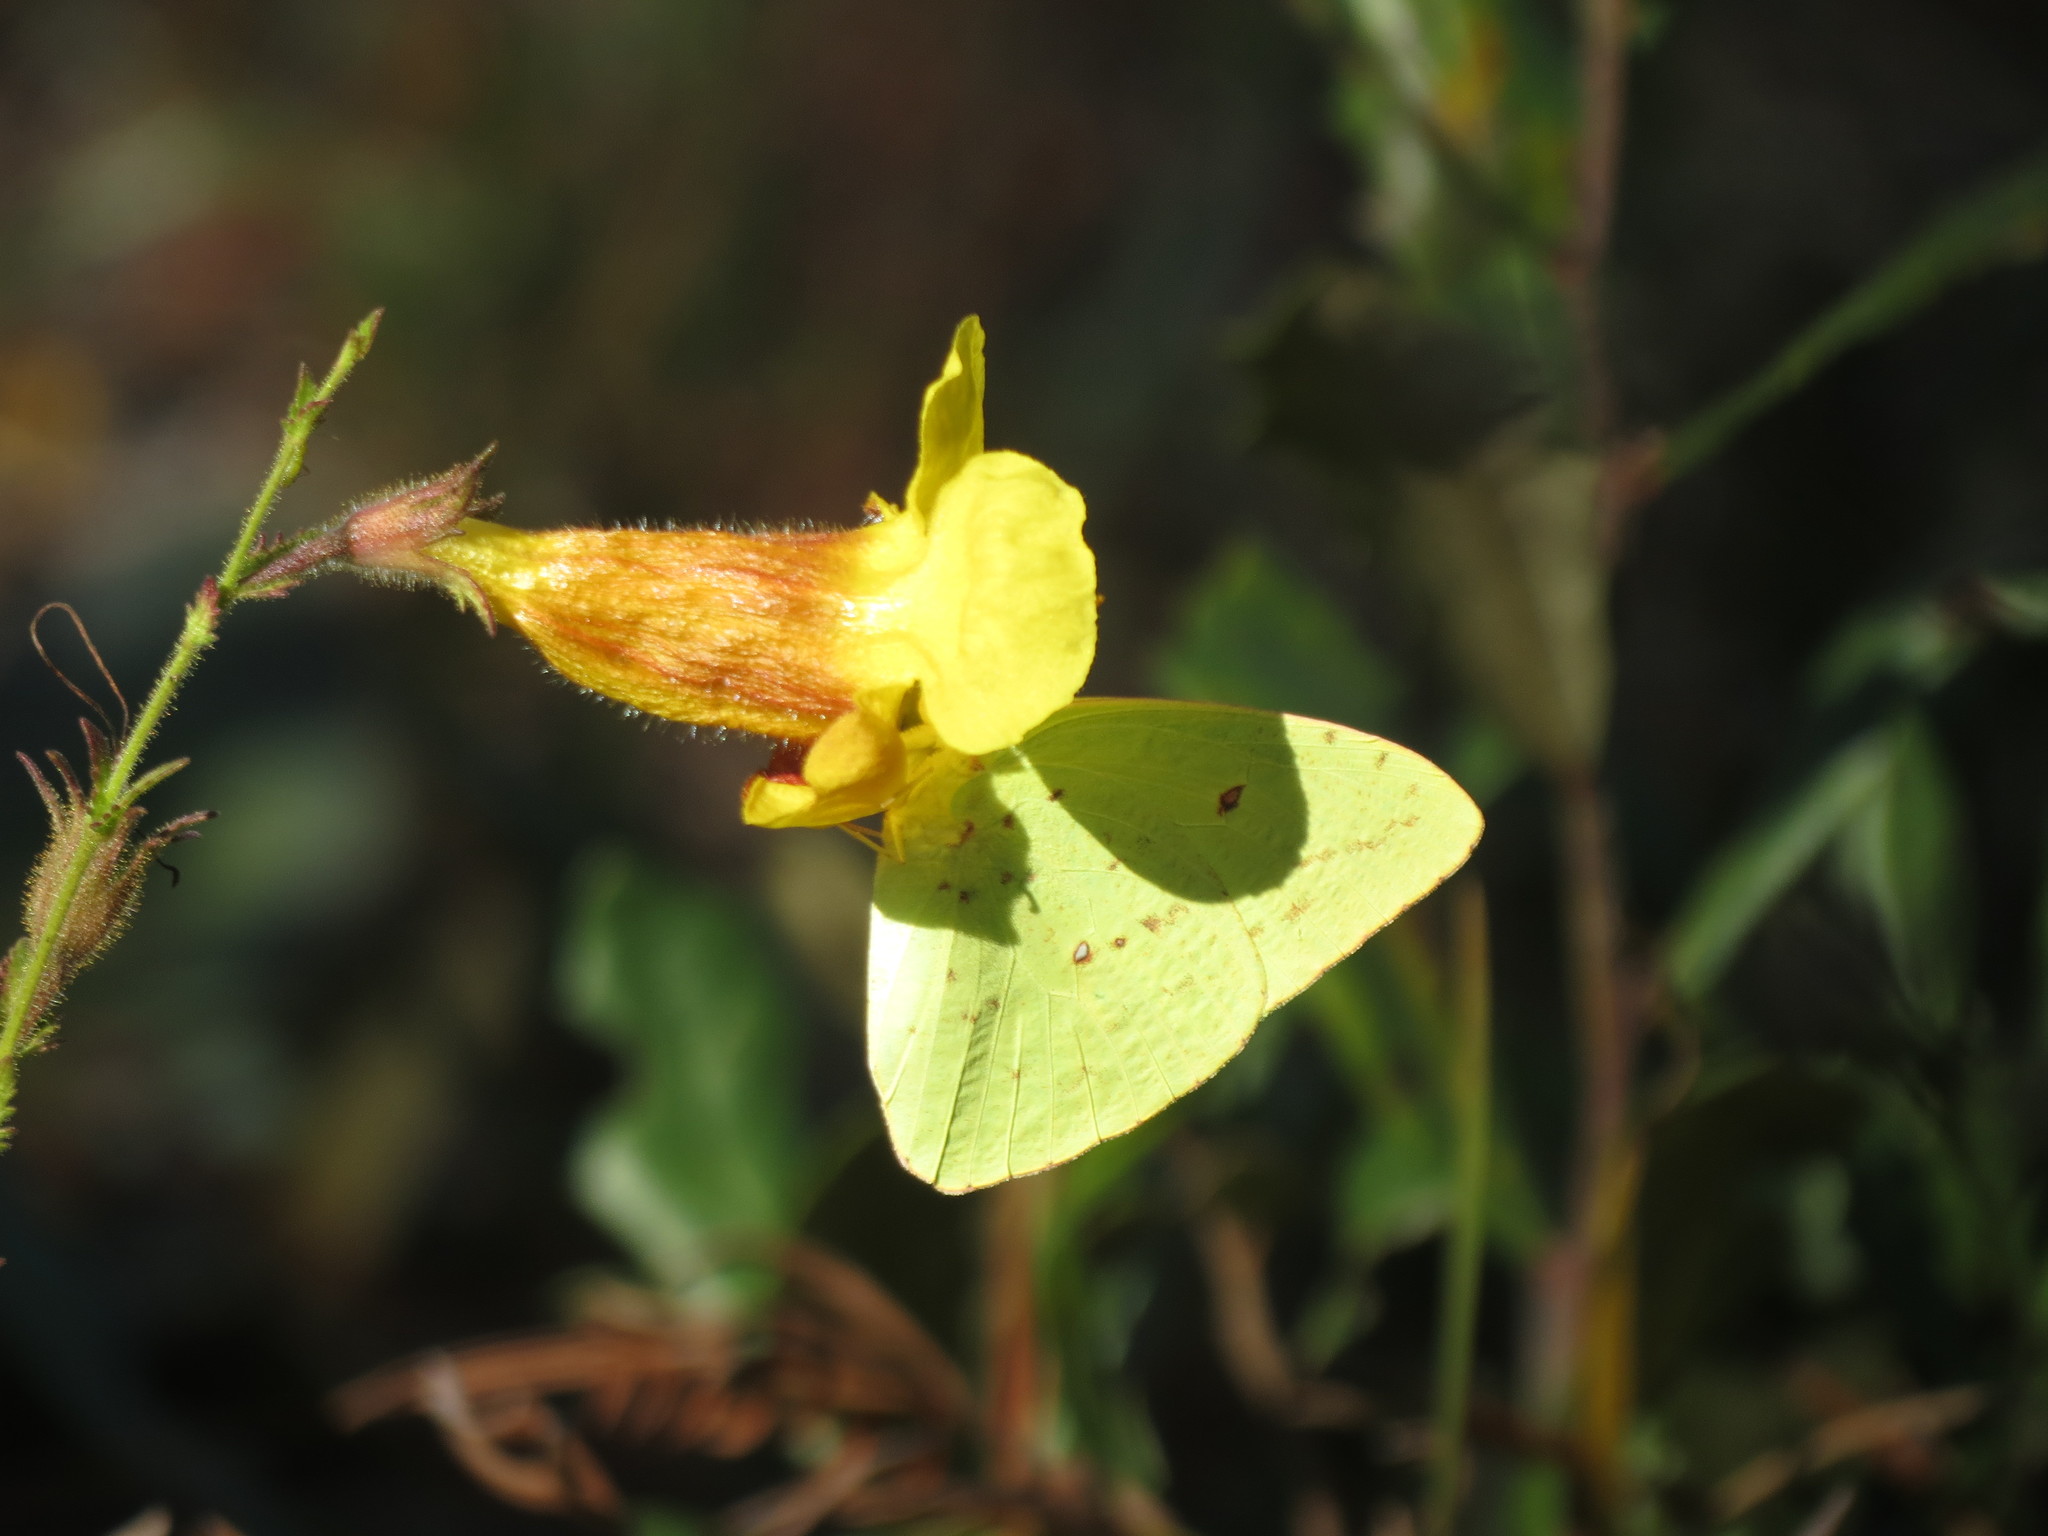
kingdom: Animalia
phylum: Arthropoda
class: Insecta
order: Lepidoptera
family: Pieridae
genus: Phoebis
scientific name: Phoebis sennae
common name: Cloudless sulphur
